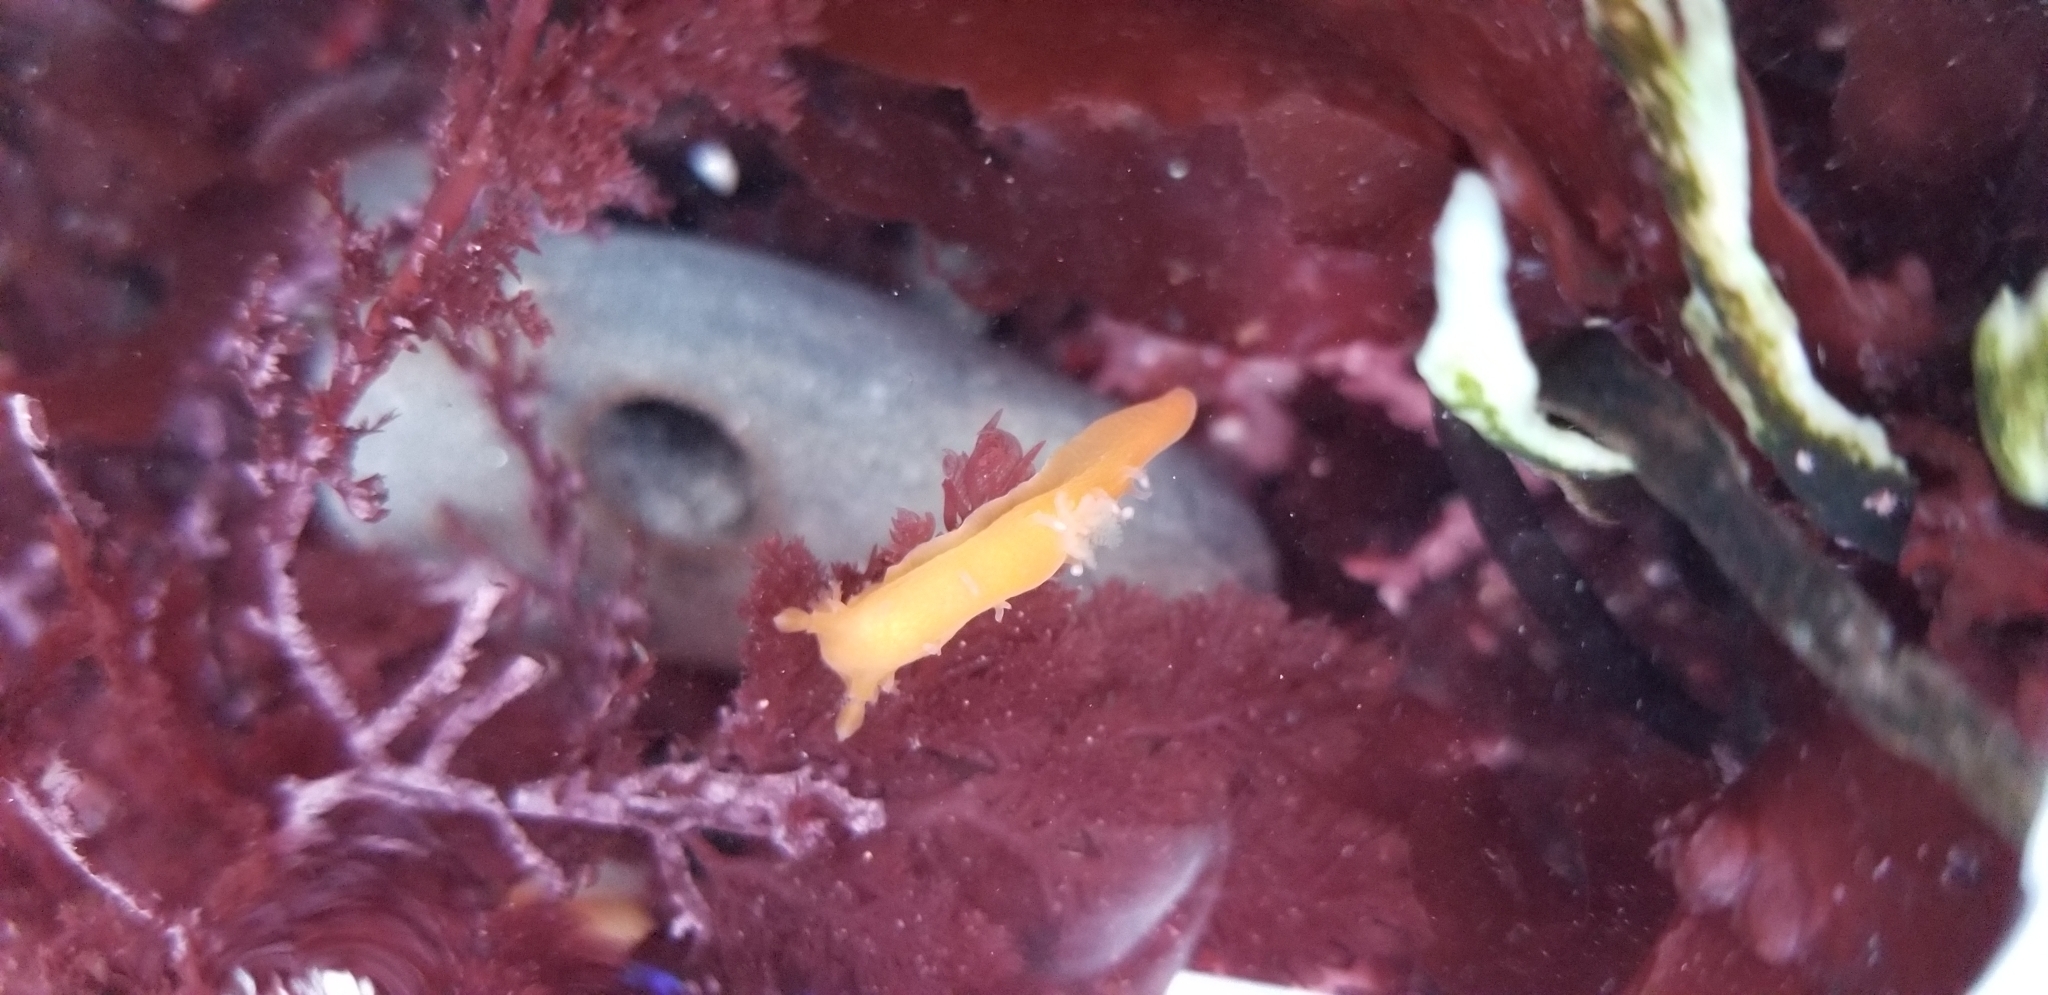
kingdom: Animalia
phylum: Mollusca
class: Gastropoda
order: Nudibranchia
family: Polyceridae
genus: Triopha
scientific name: Triopha maculata
